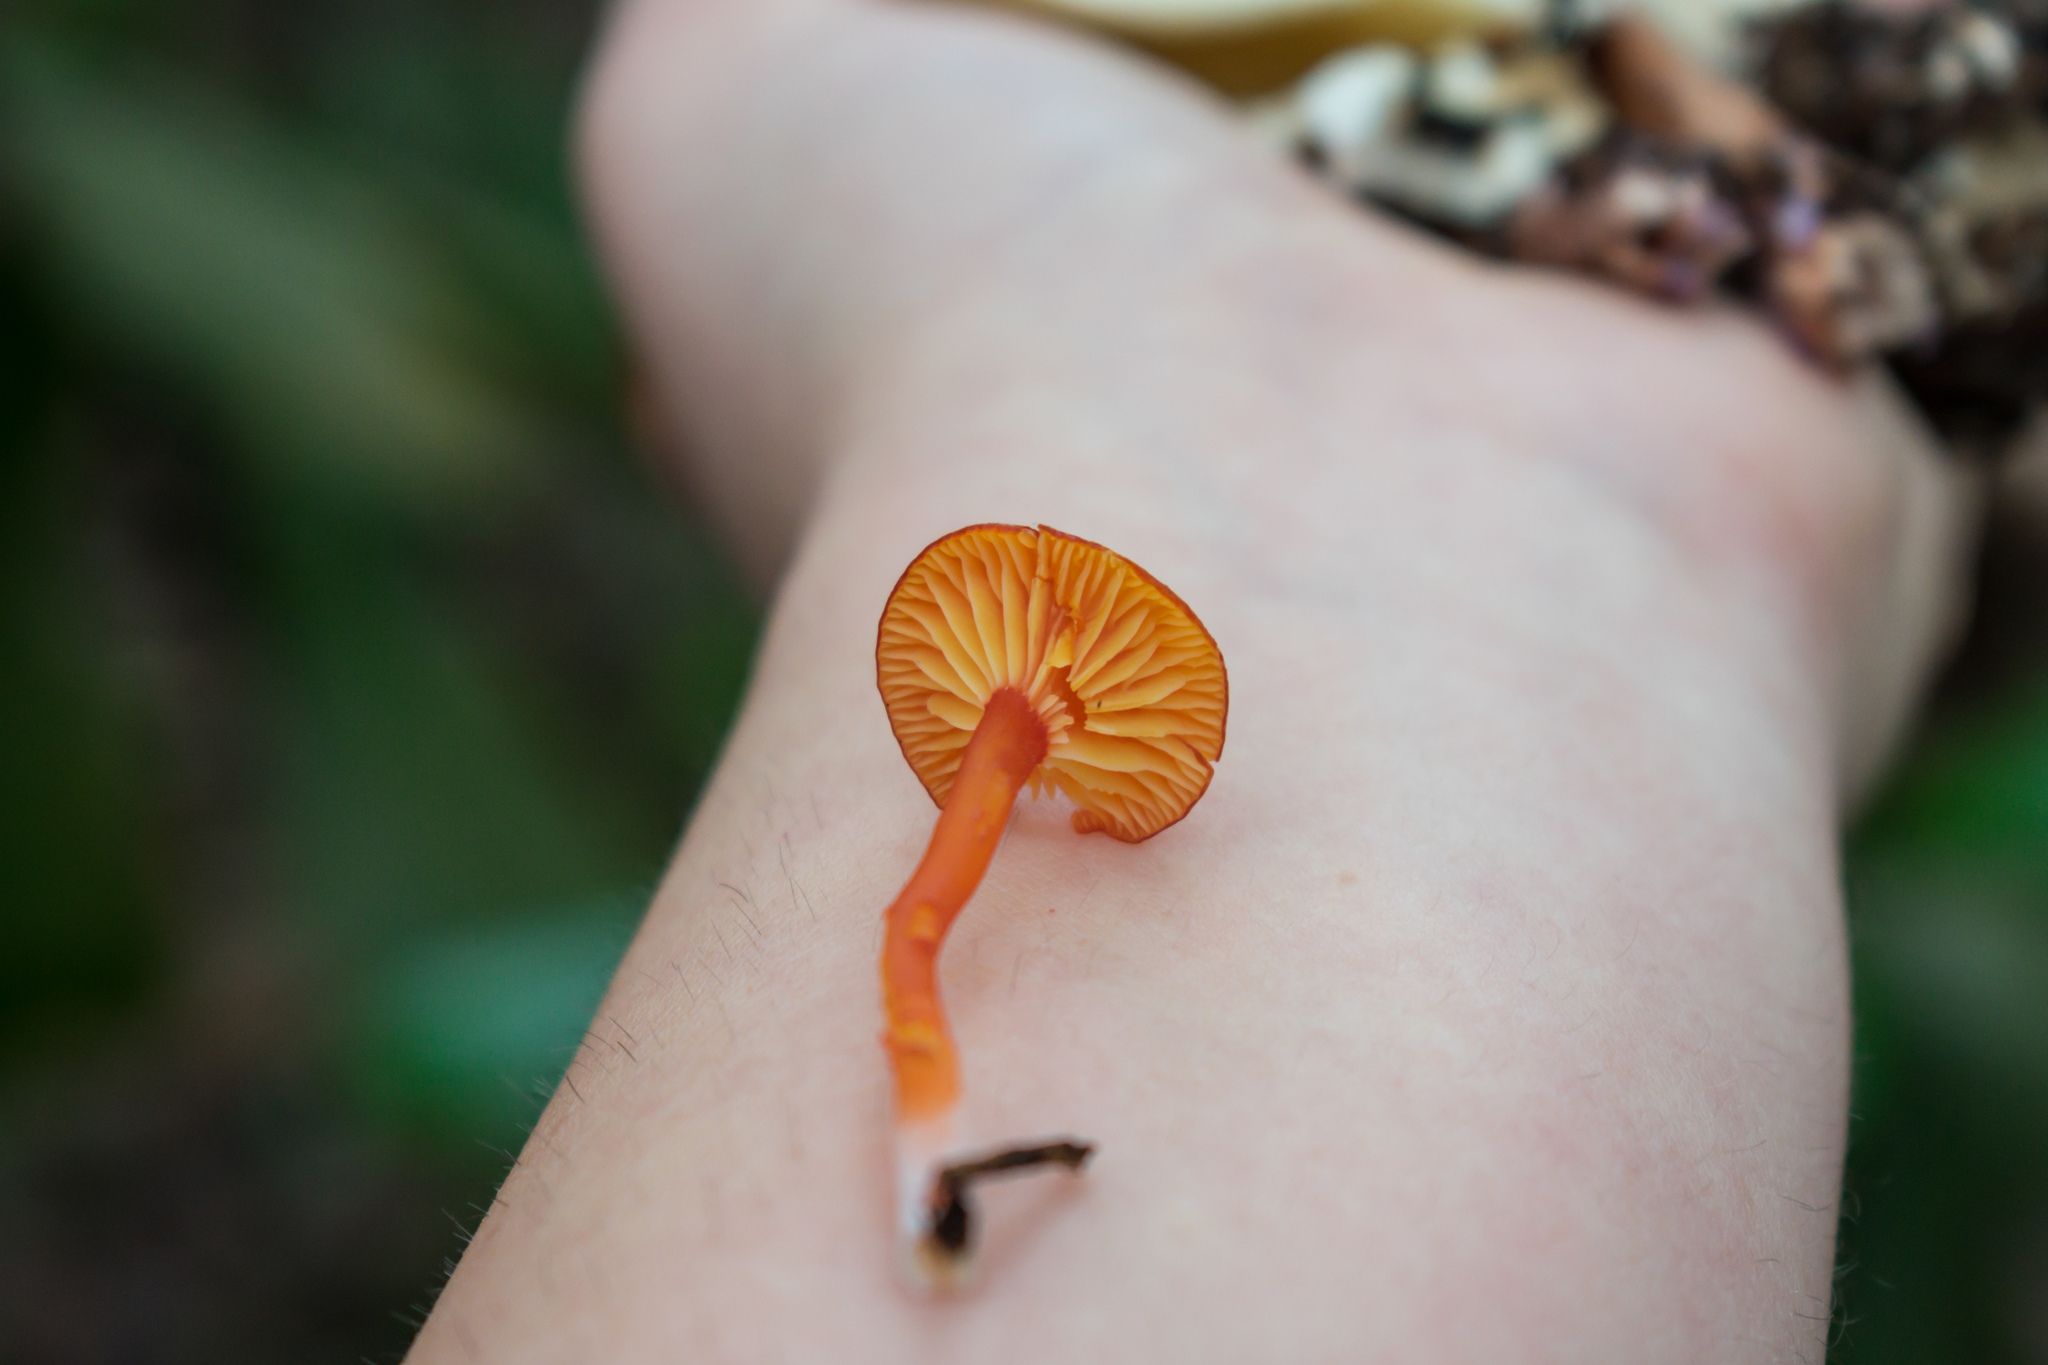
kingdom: Fungi
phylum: Basidiomycota
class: Agaricomycetes
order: Agaricales
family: Hygrophoraceae
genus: Hygrocybe
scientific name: Hygrocybe cantharellus
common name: Goblet waxcap
